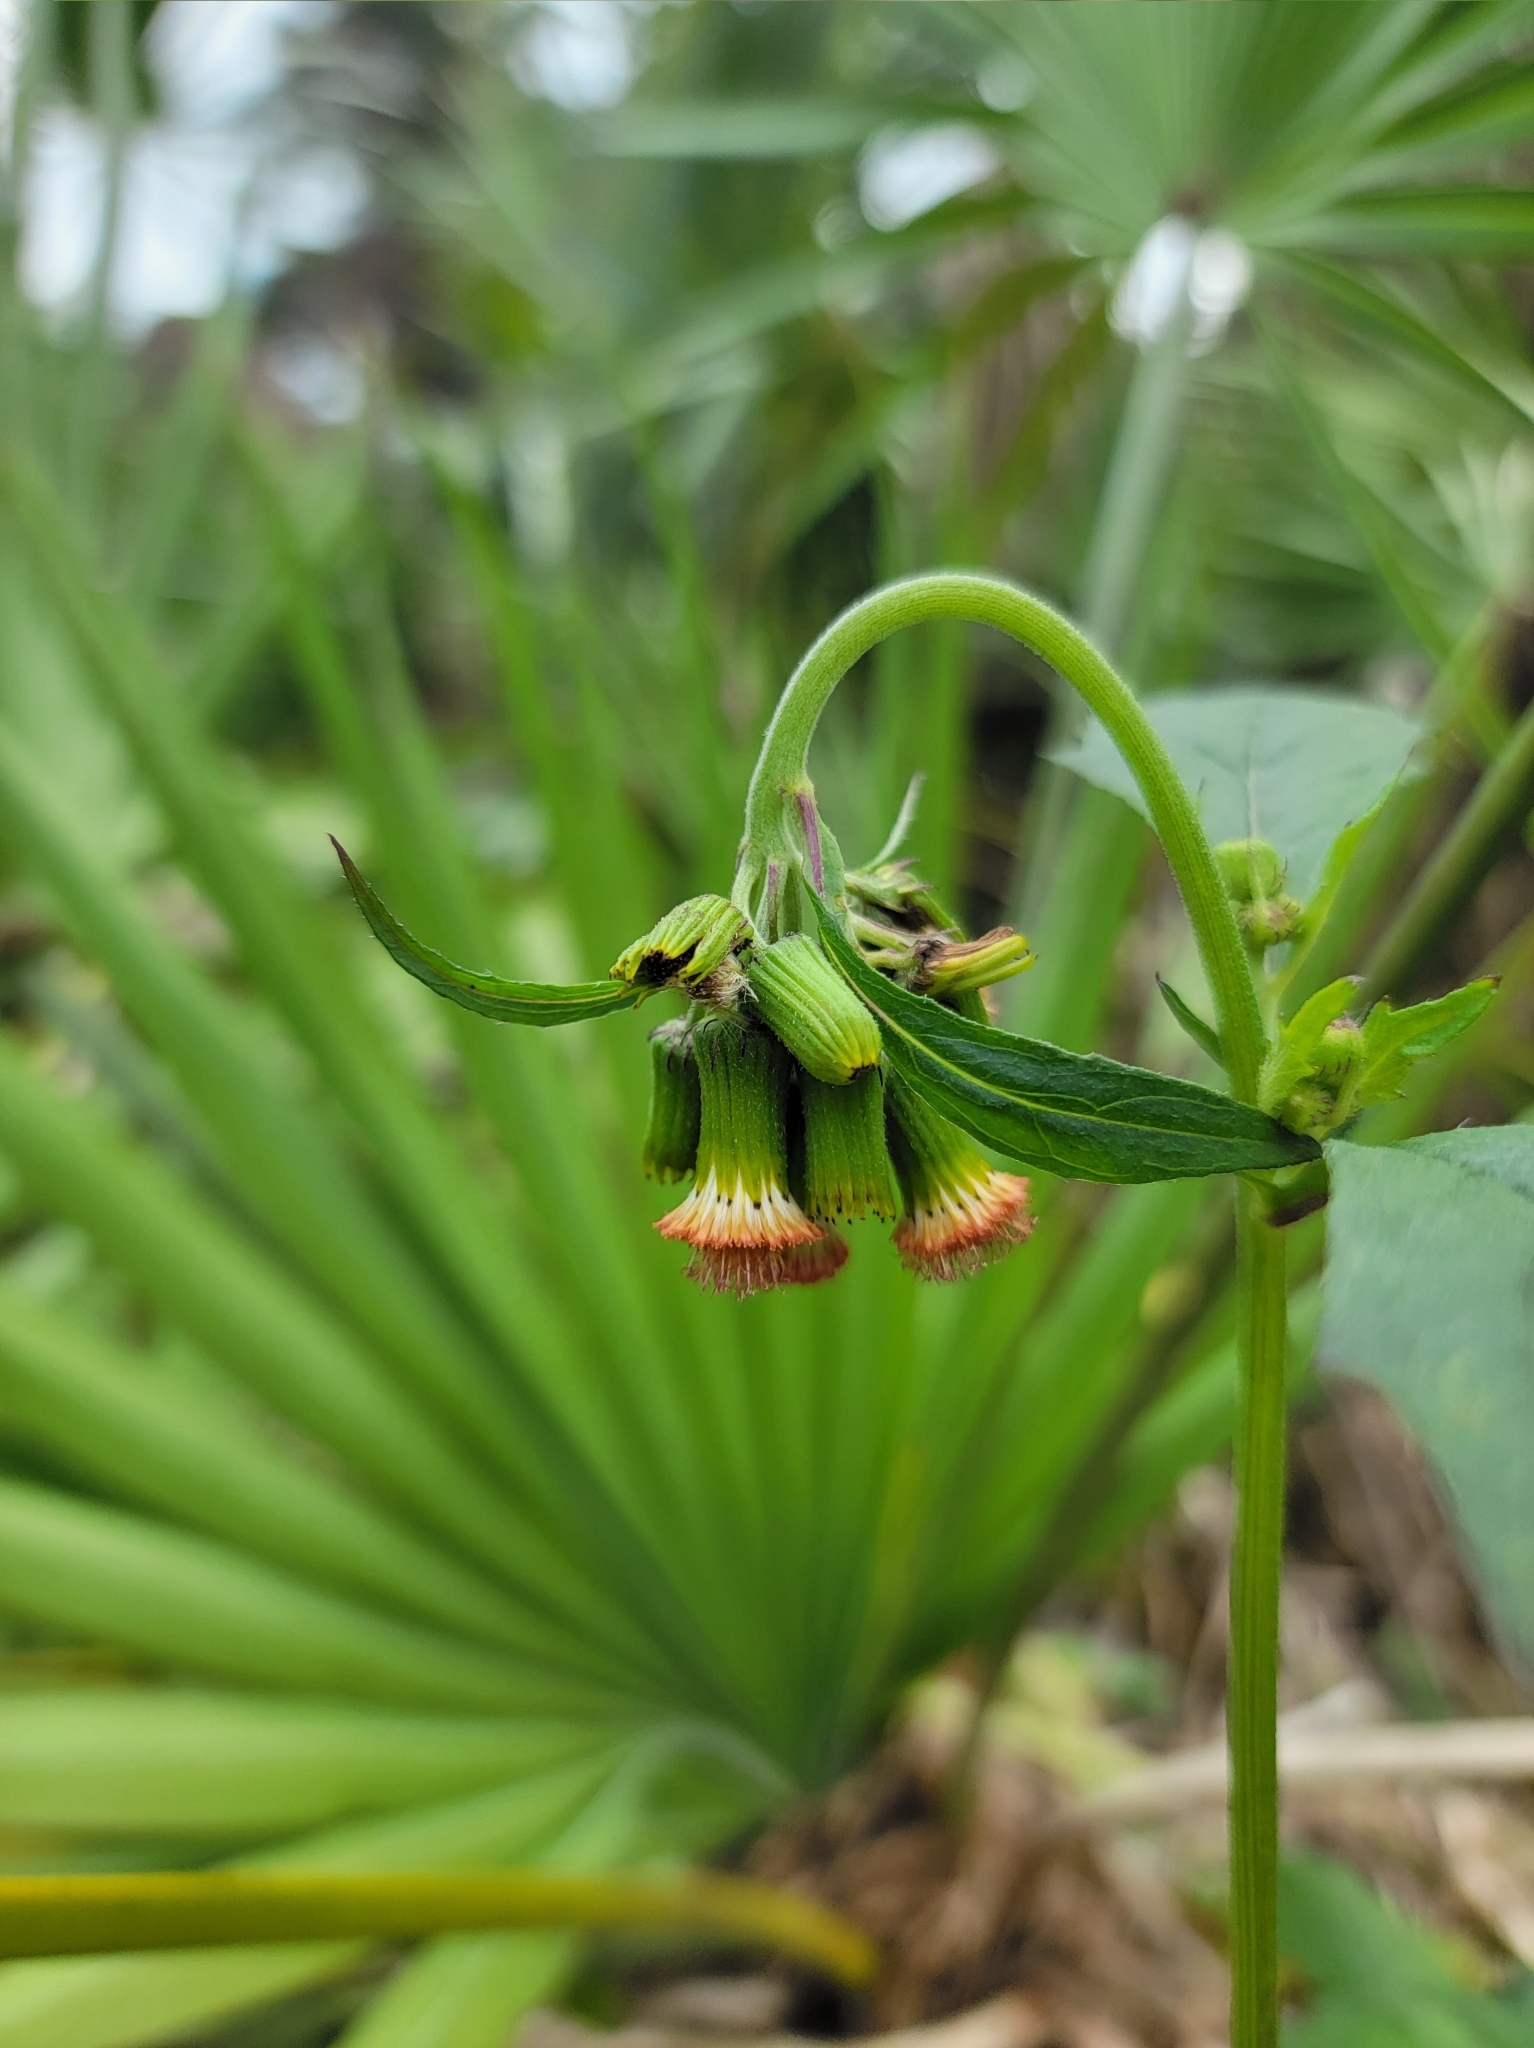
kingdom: Plantae
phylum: Tracheophyta
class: Magnoliopsida
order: Asterales
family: Asteraceae
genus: Crassocephalum
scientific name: Crassocephalum crepidioides
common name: Redflower ragleaf
